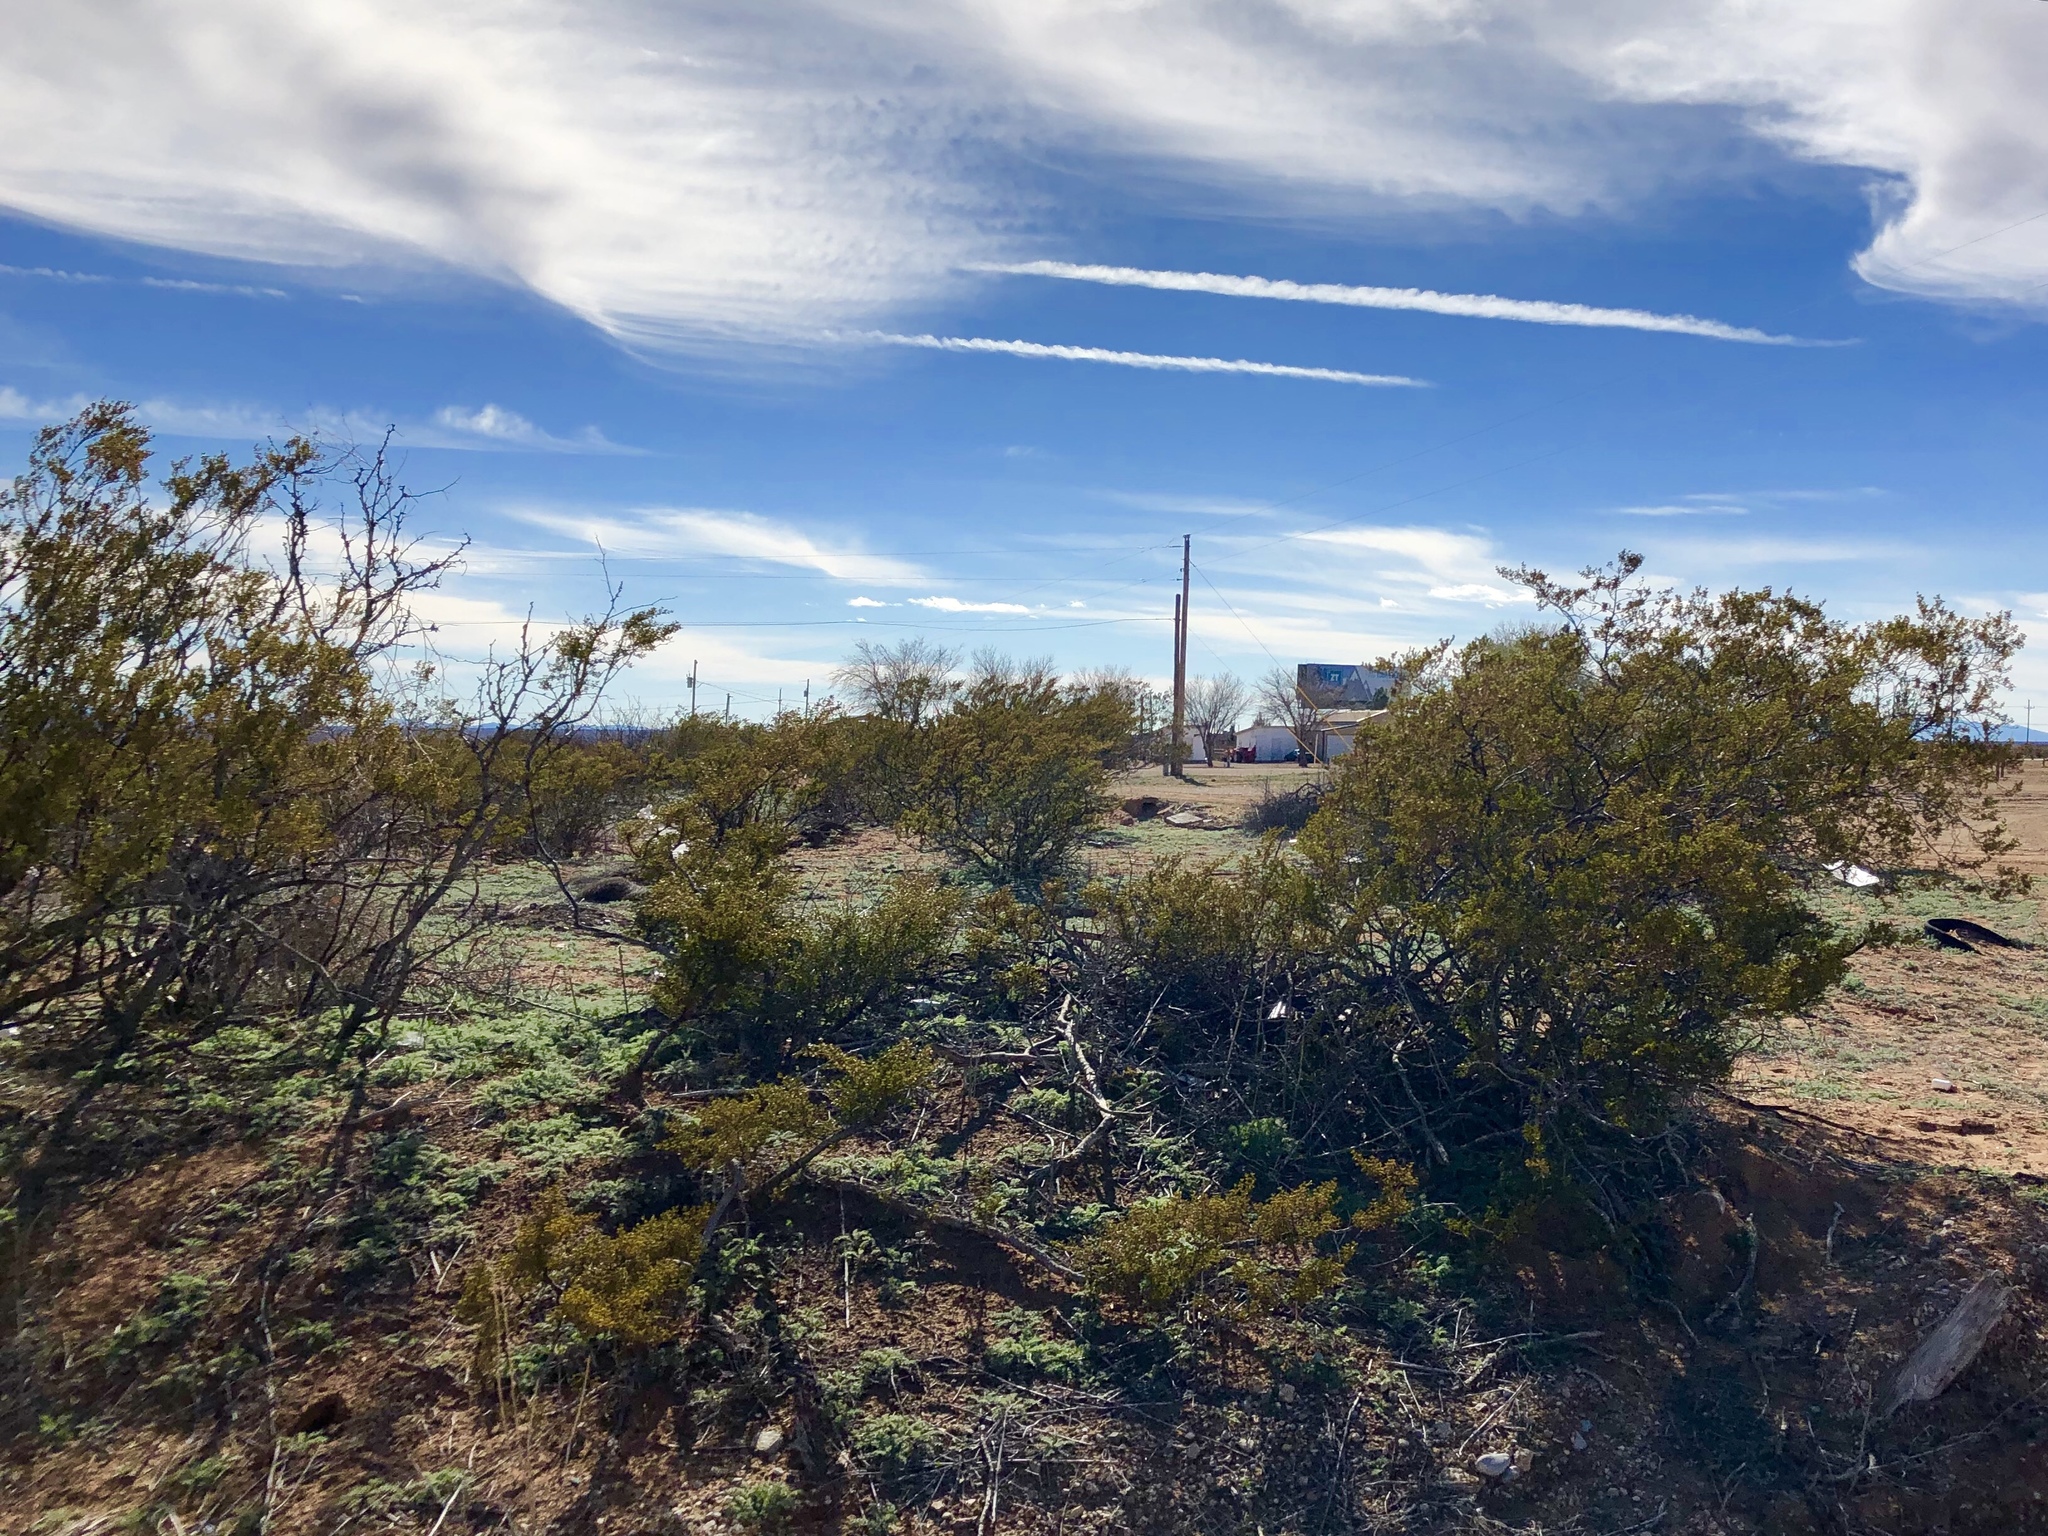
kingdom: Plantae
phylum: Tracheophyta
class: Magnoliopsida
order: Zygophyllales
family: Zygophyllaceae
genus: Larrea
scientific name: Larrea tridentata
